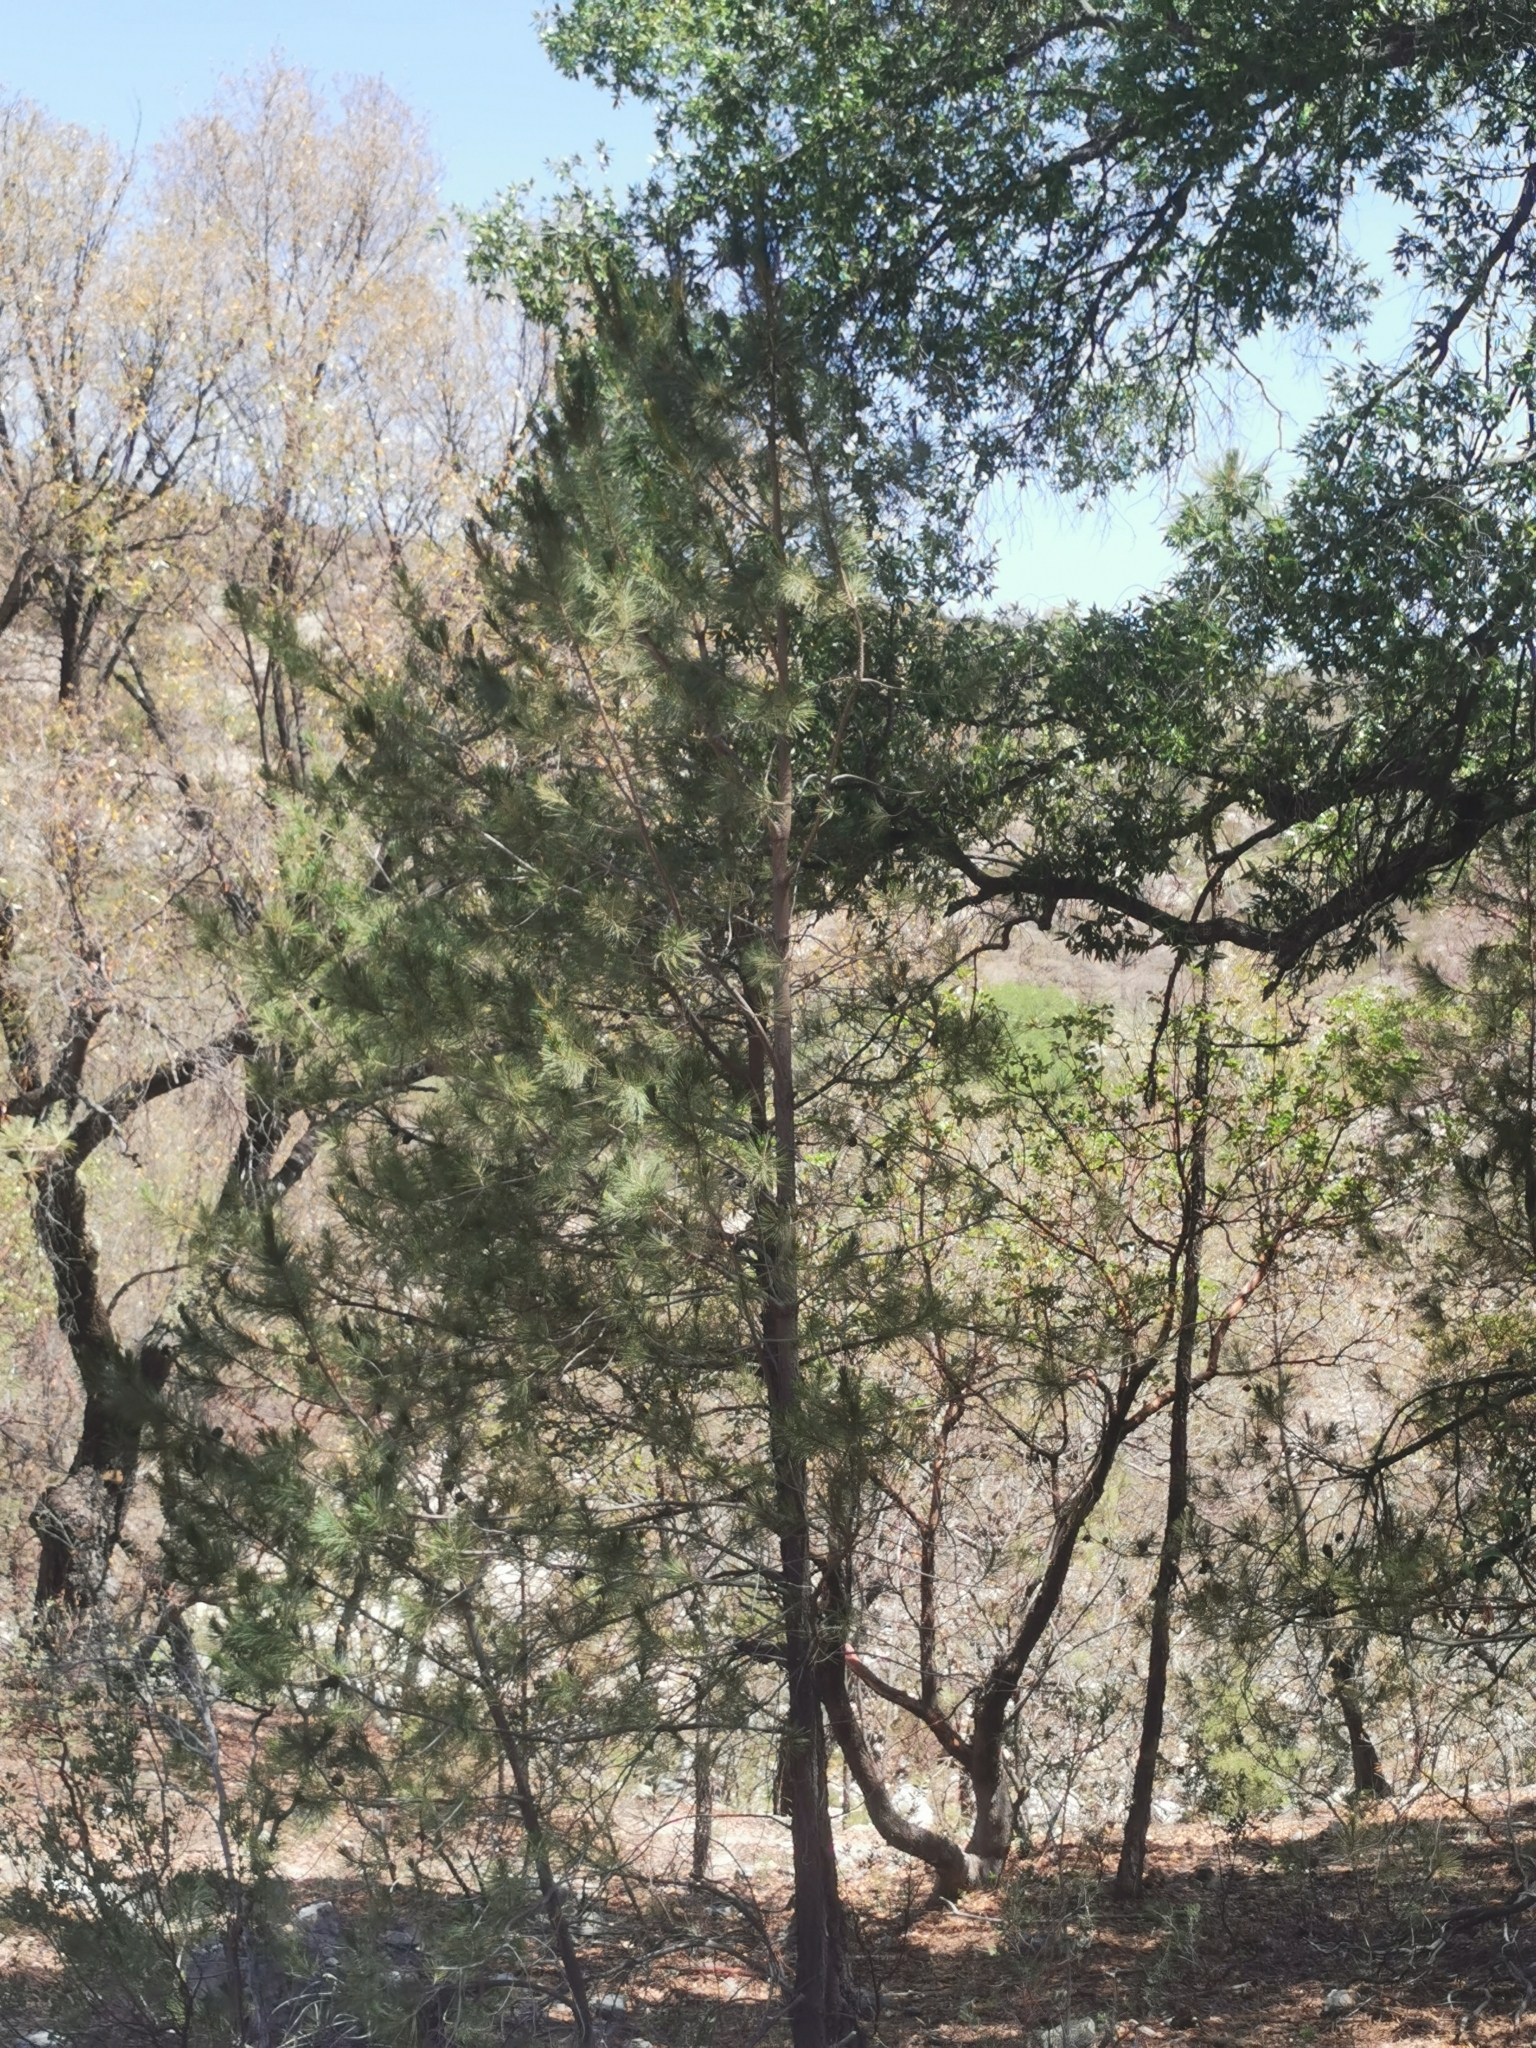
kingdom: Plantae
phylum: Tracheophyta
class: Pinopsida
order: Pinales
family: Pinaceae
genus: Pinus
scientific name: Pinus leiophylla
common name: Chihuahua pine
